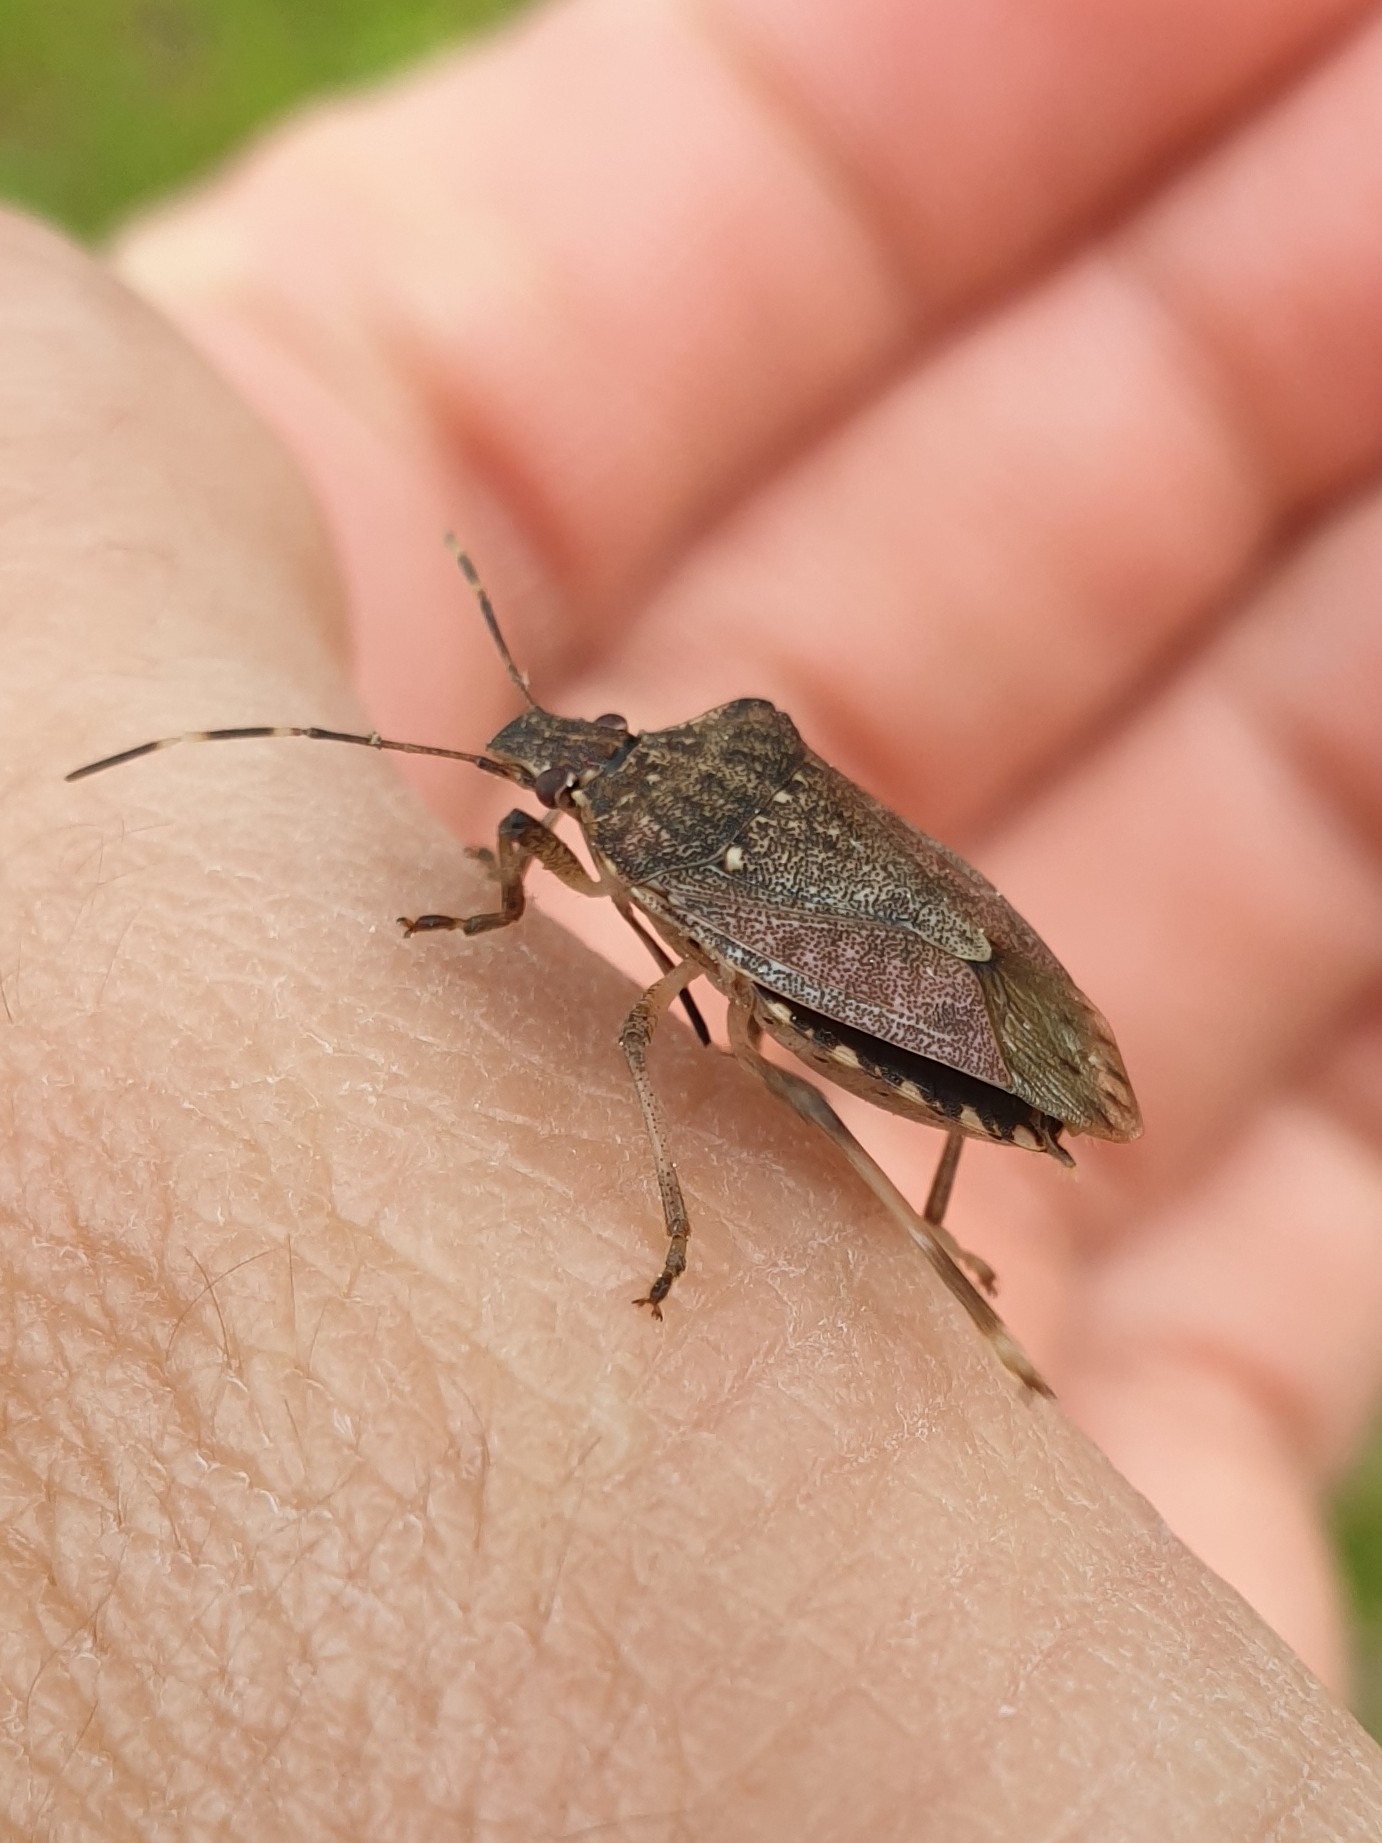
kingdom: Animalia
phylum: Arthropoda
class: Insecta
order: Hemiptera
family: Pentatomidae
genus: Halyomorpha
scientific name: Halyomorpha halys
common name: Brown marmorated stink bug
